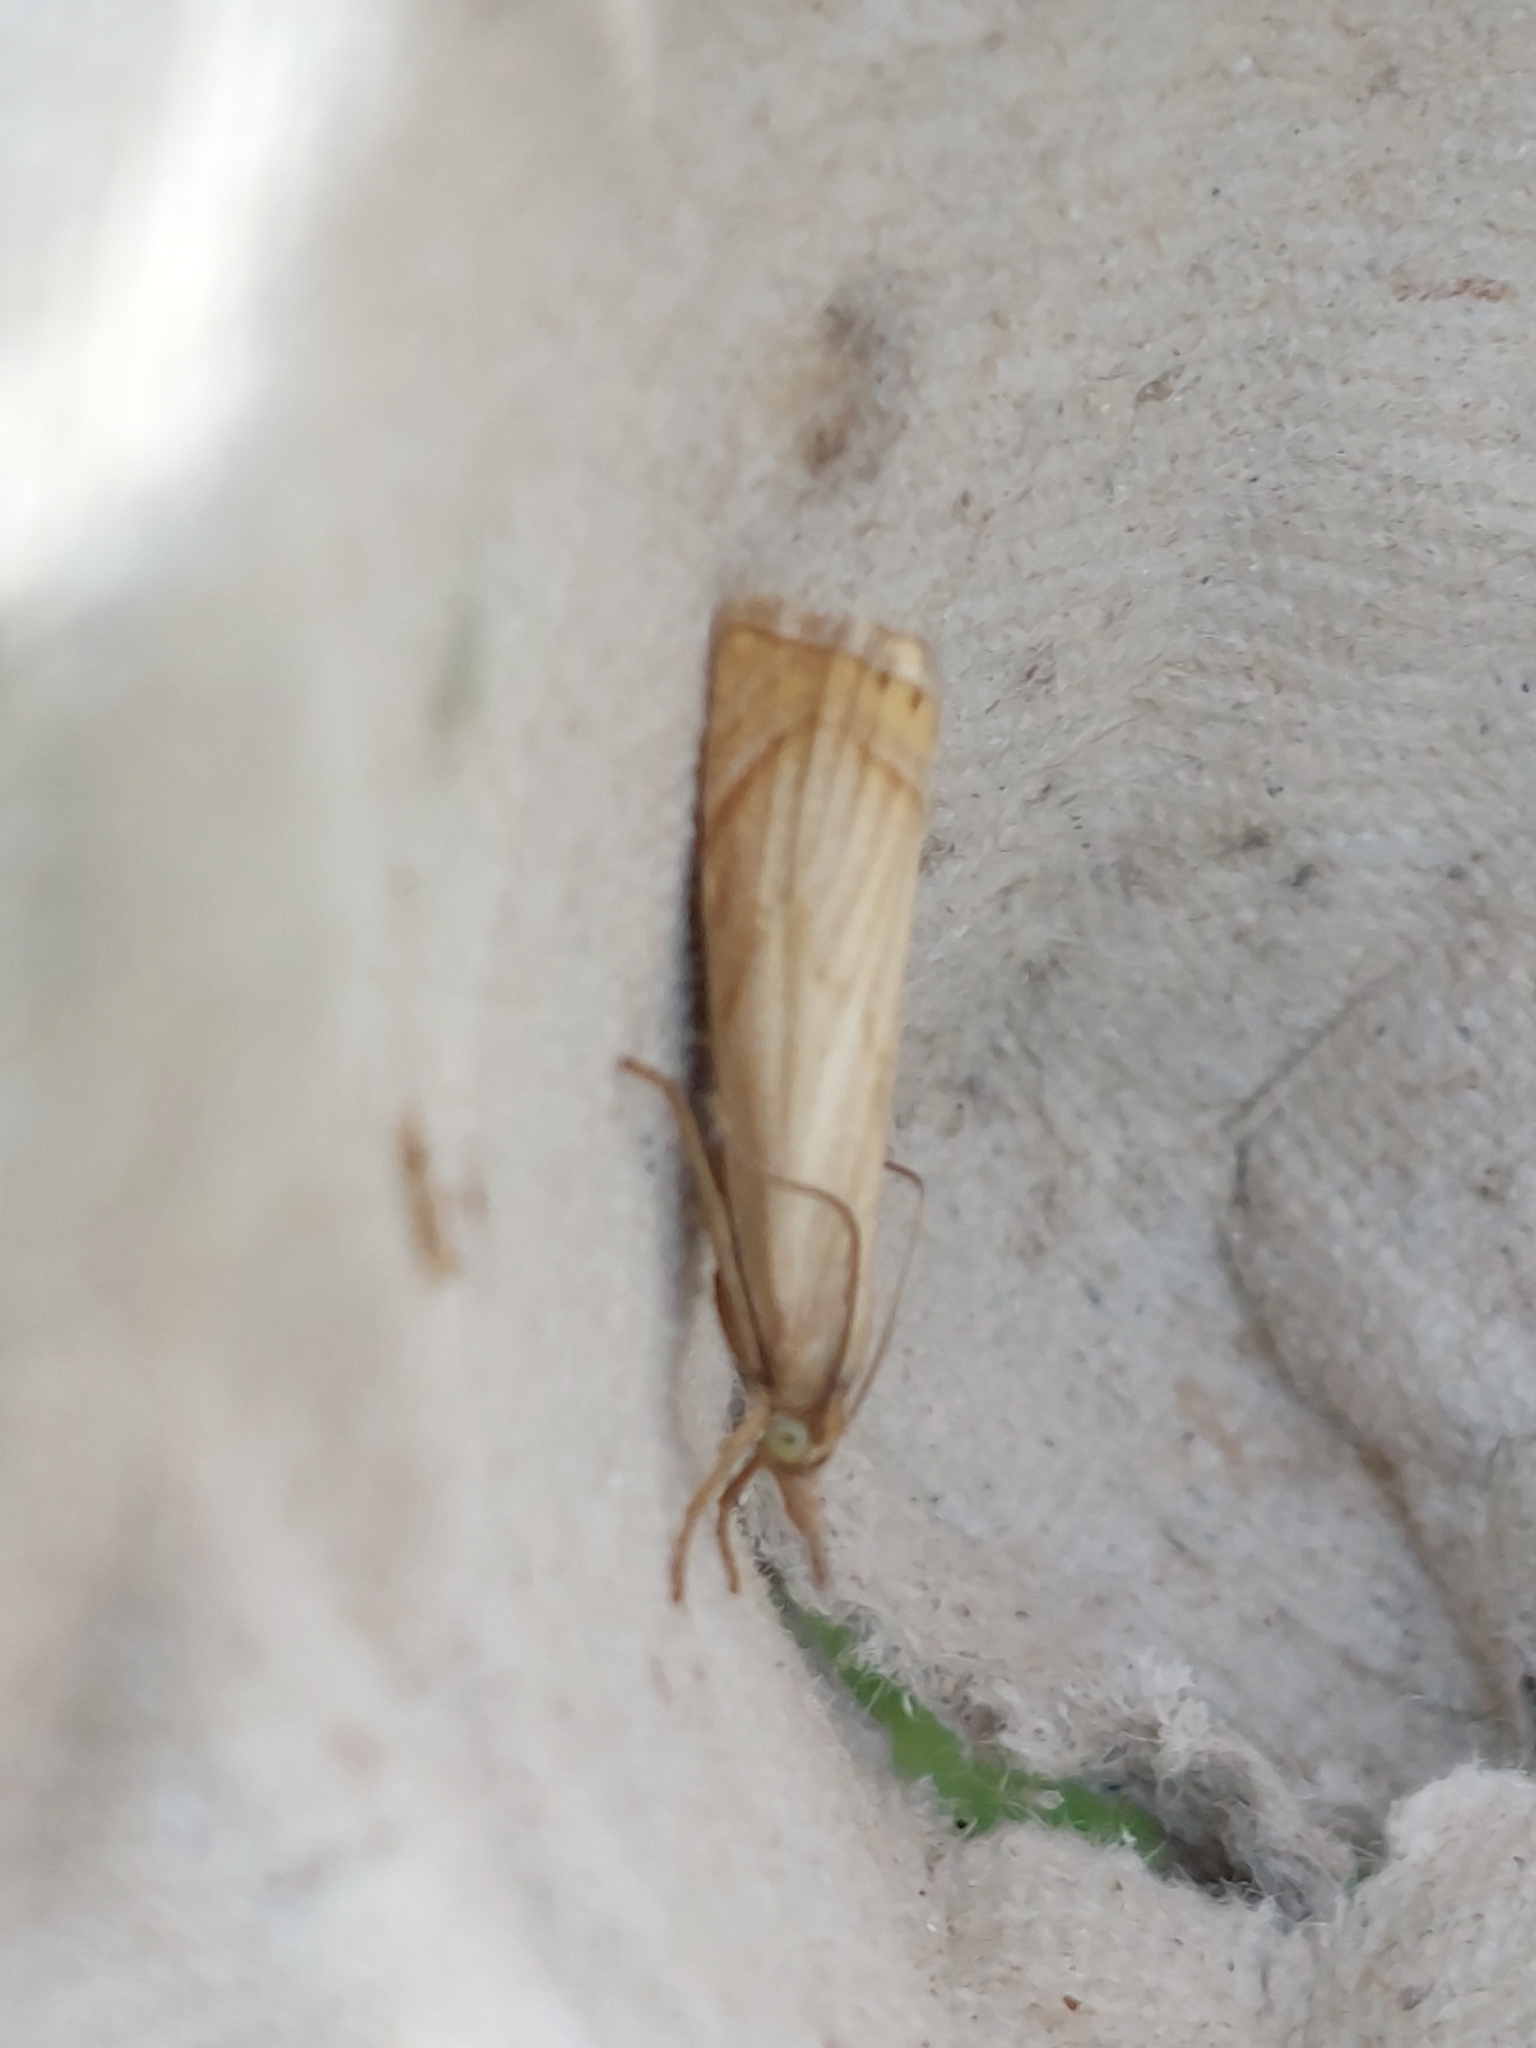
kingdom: Animalia
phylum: Arthropoda
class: Insecta
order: Lepidoptera
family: Crambidae
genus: Chrysoteuchia
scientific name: Chrysoteuchia culmella
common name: Garden grass-veneer
